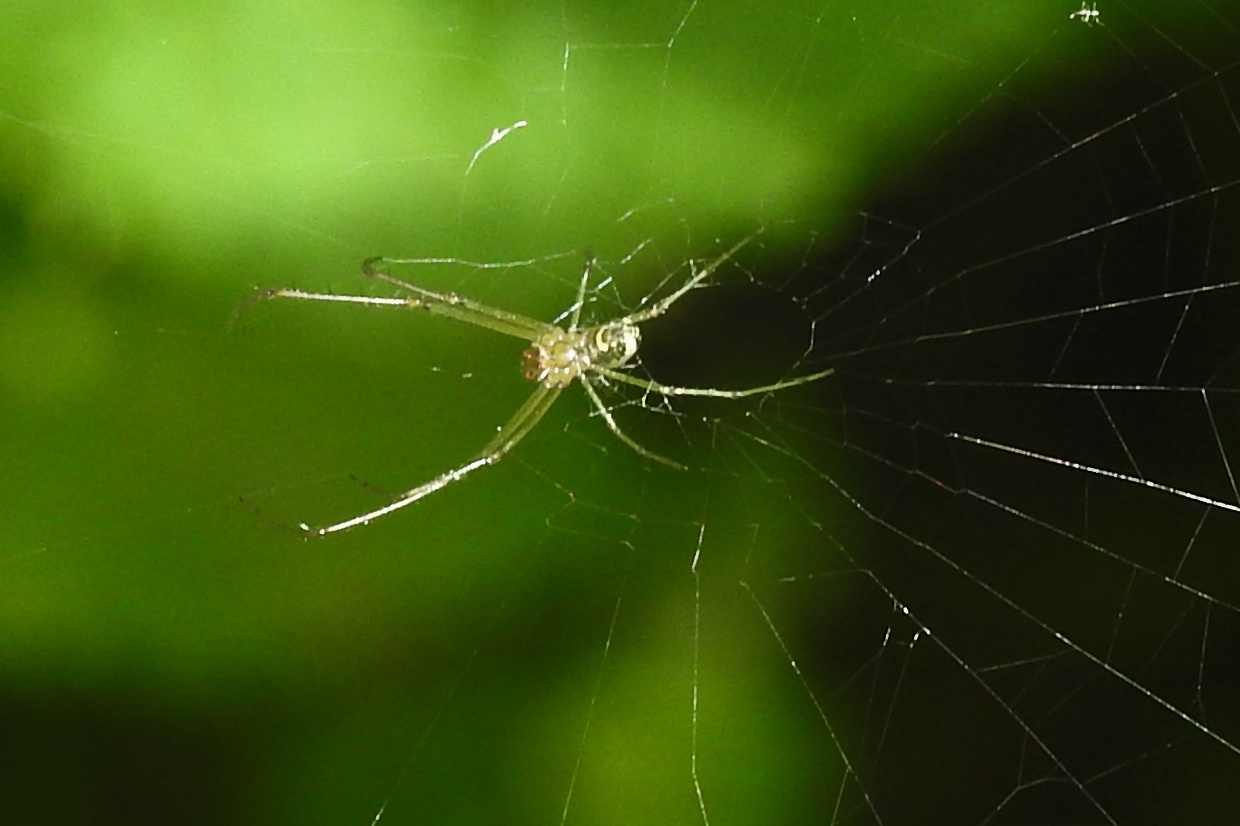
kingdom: Animalia
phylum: Arthropoda
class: Arachnida
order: Araneae
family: Tetragnathidae
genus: Leucauge
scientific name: Leucauge venusta
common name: Longjawed orb weavers
